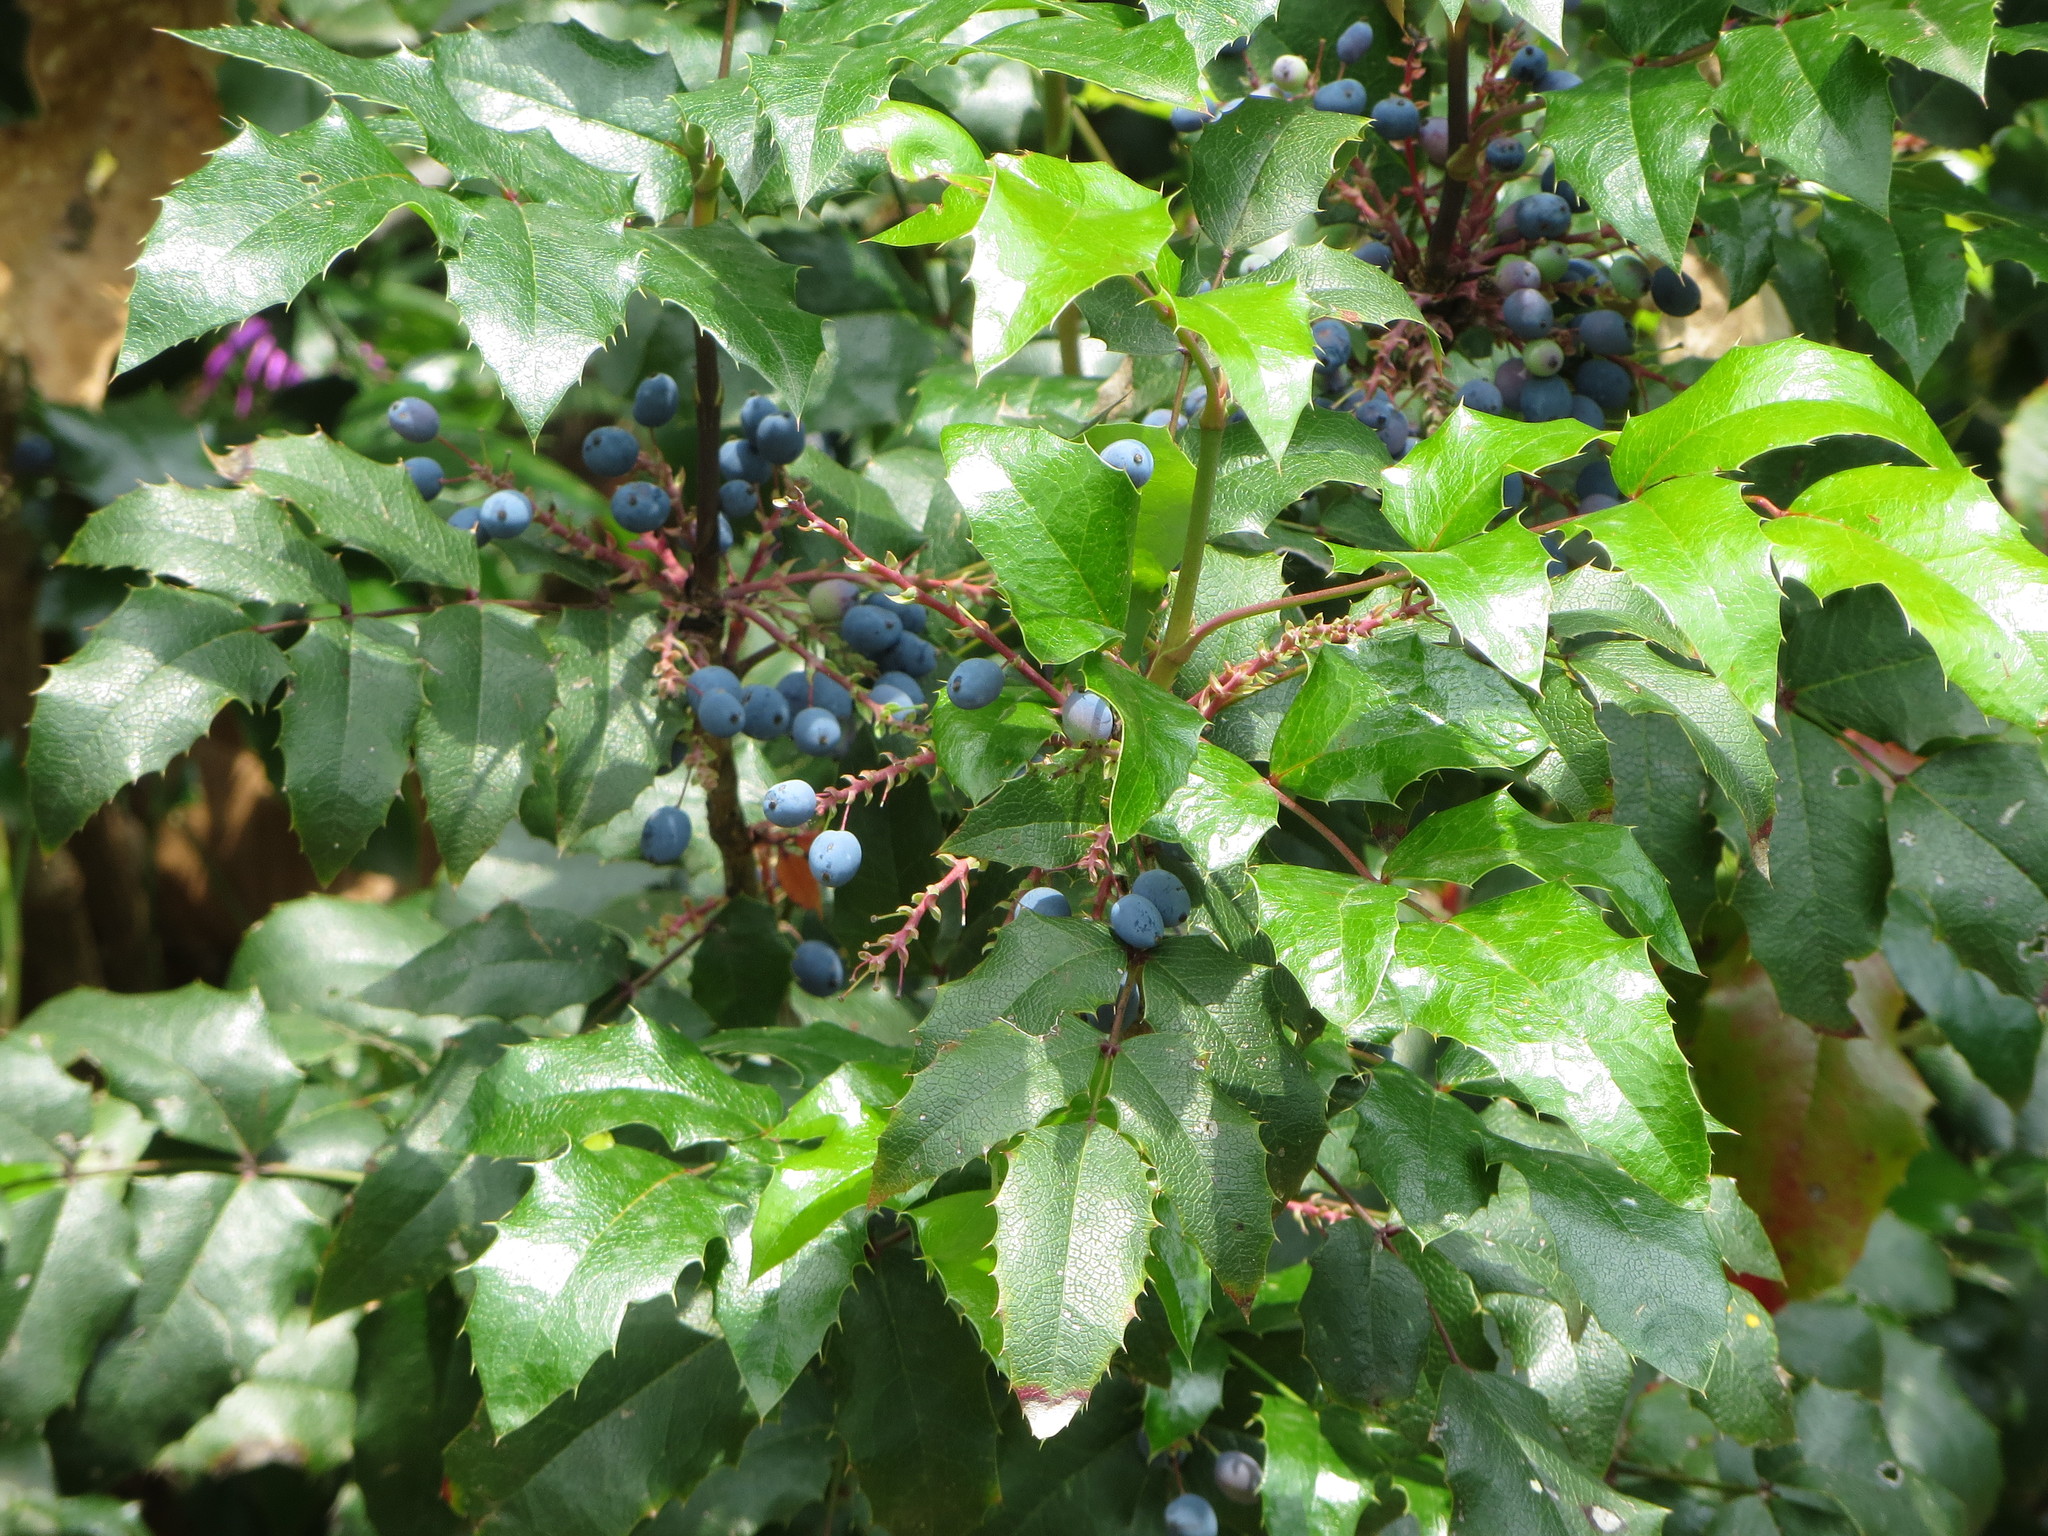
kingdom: Plantae
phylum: Tracheophyta
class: Magnoliopsida
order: Ranunculales
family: Berberidaceae
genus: Mahonia
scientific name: Mahonia aquifolium
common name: Oregon-grape
